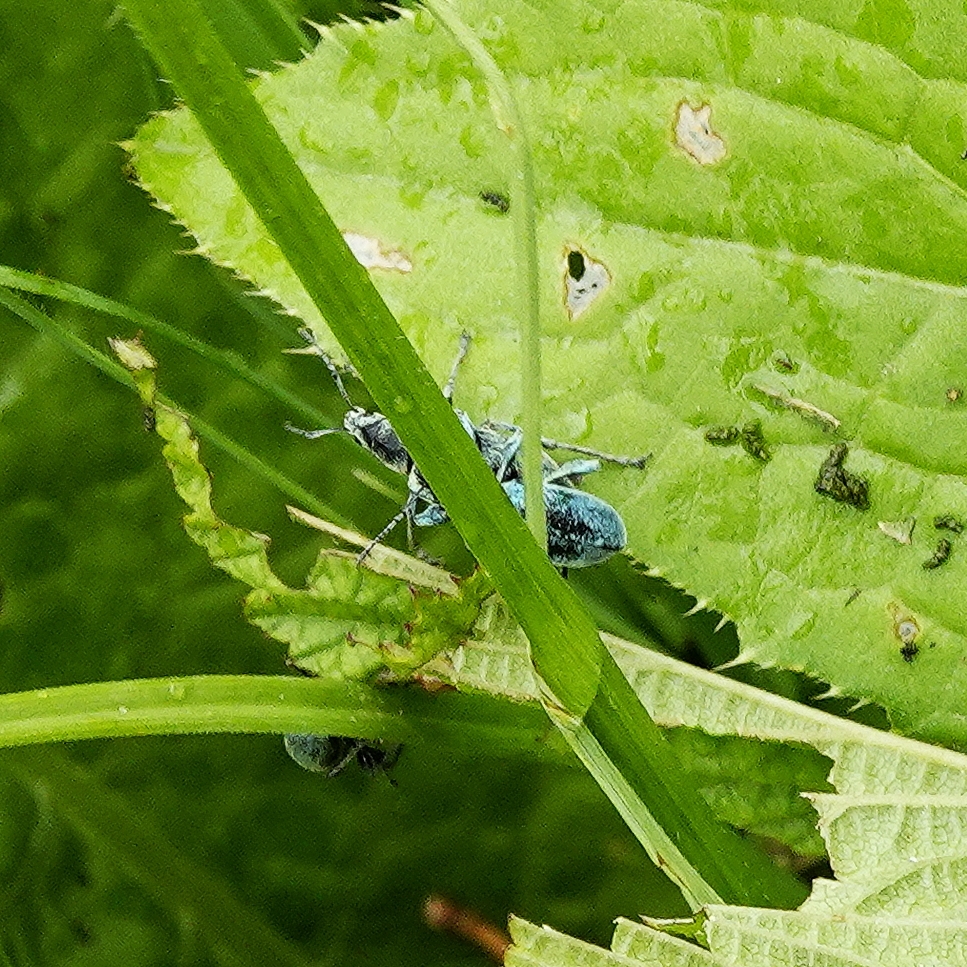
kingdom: Animalia
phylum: Arthropoda
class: Insecta
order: Coleoptera
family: Curculionidae
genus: Phyllobius
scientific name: Phyllobius pomaceus
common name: Green nettle weevil
